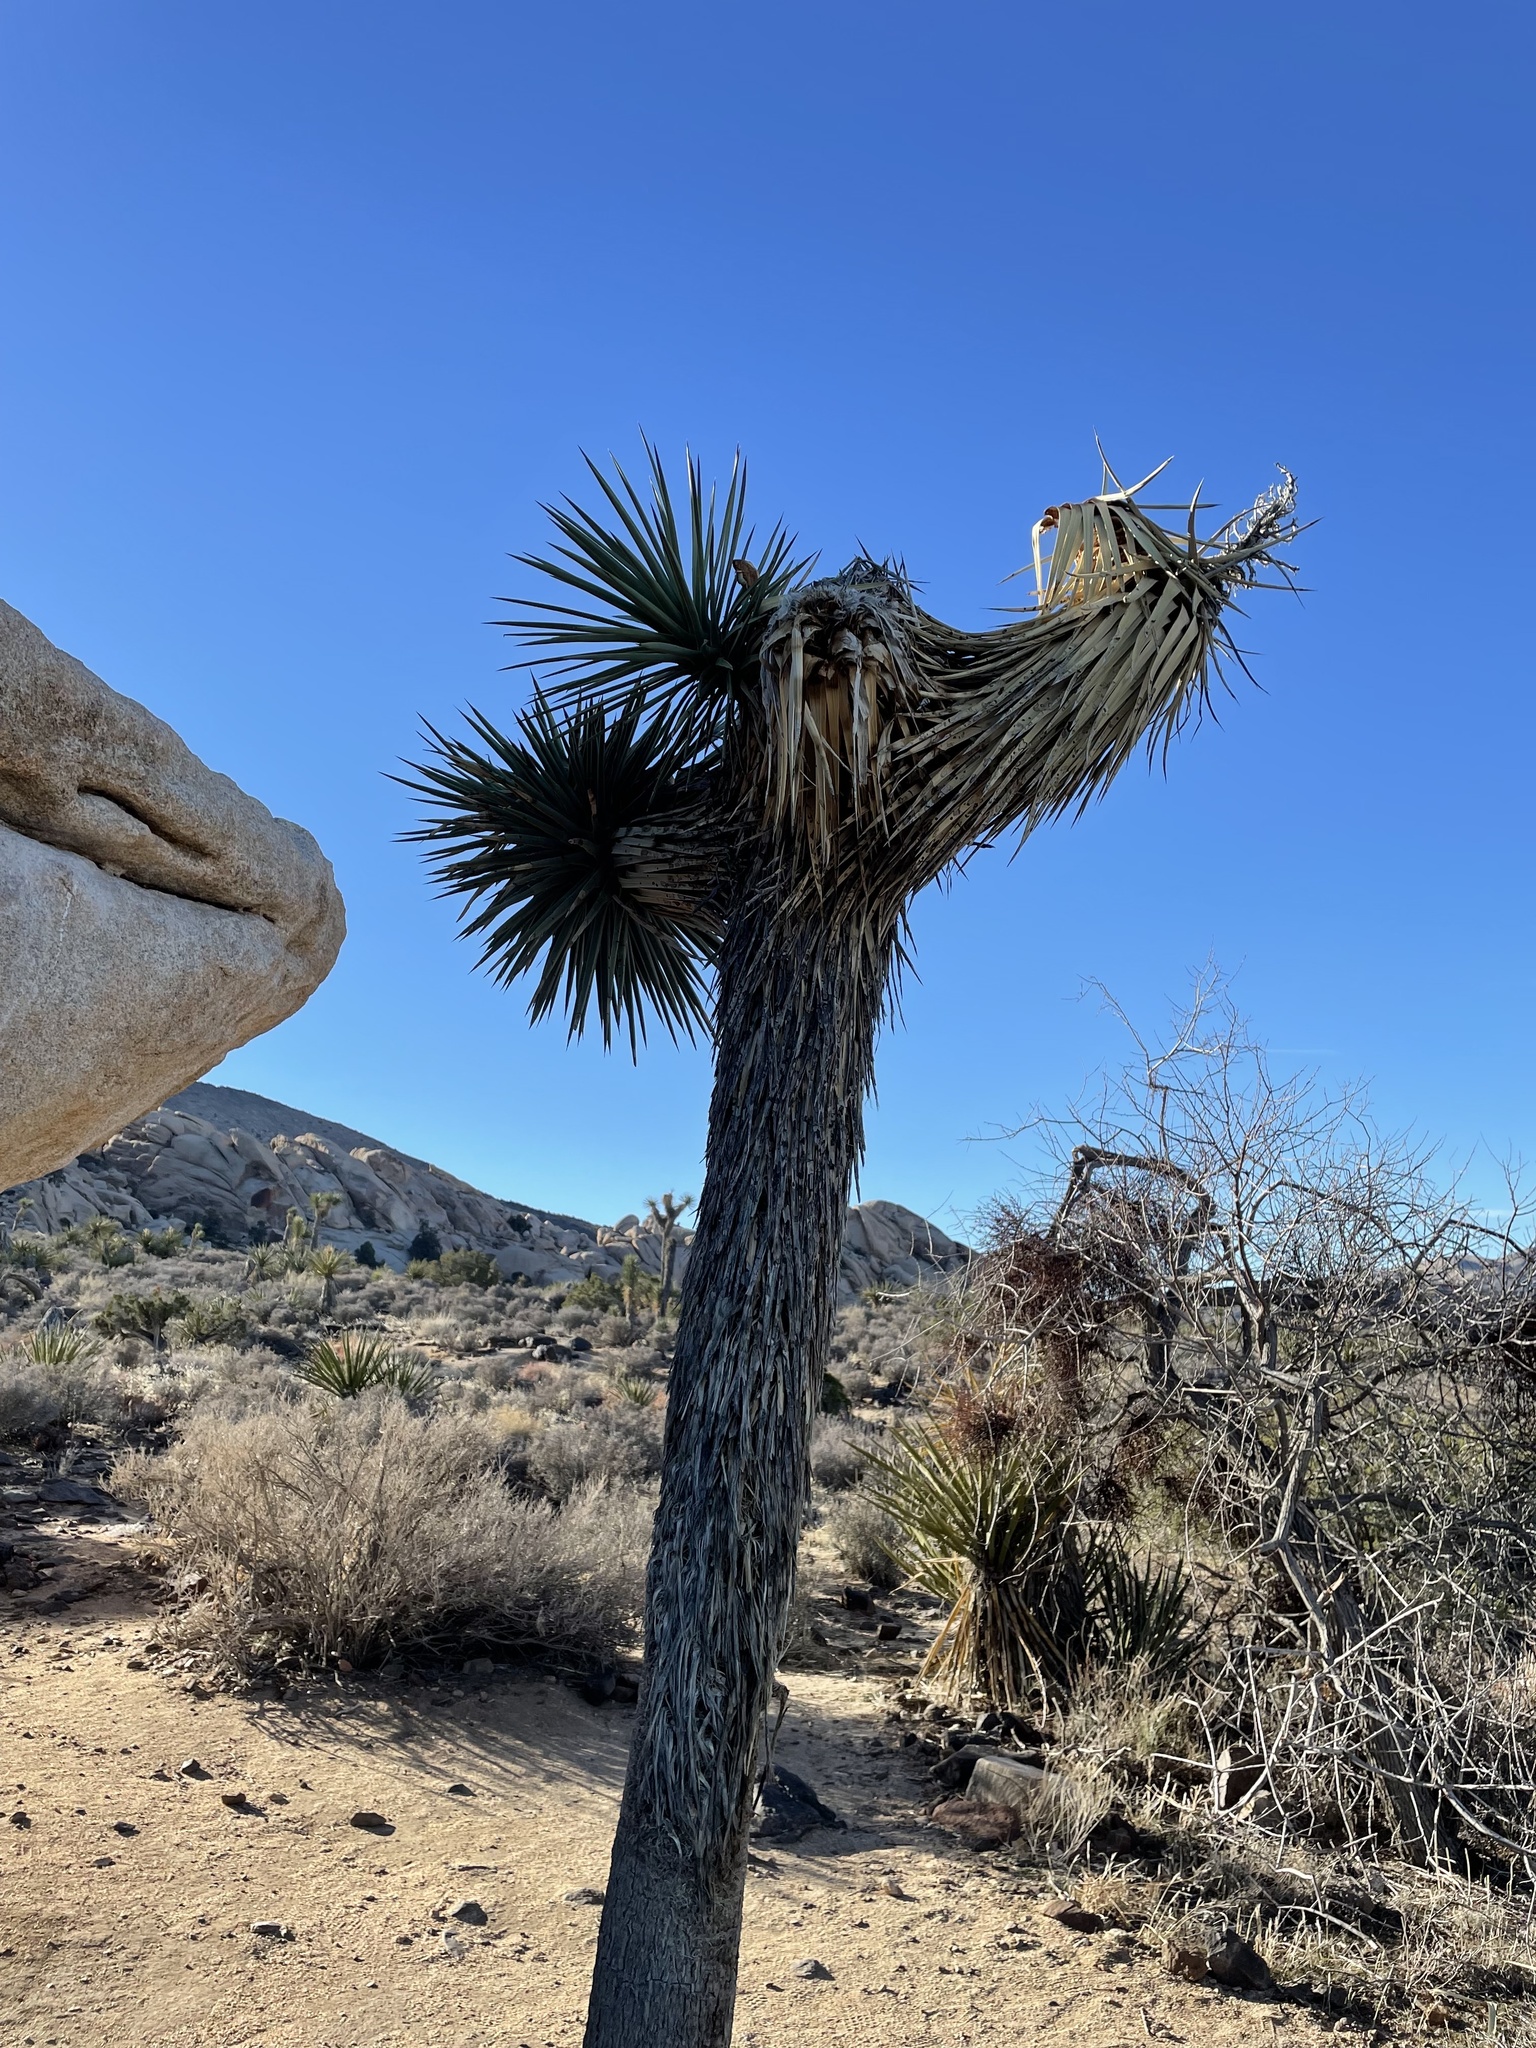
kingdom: Plantae
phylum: Tracheophyta
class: Liliopsida
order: Asparagales
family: Asparagaceae
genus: Yucca
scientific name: Yucca brevifolia
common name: Joshua tree
